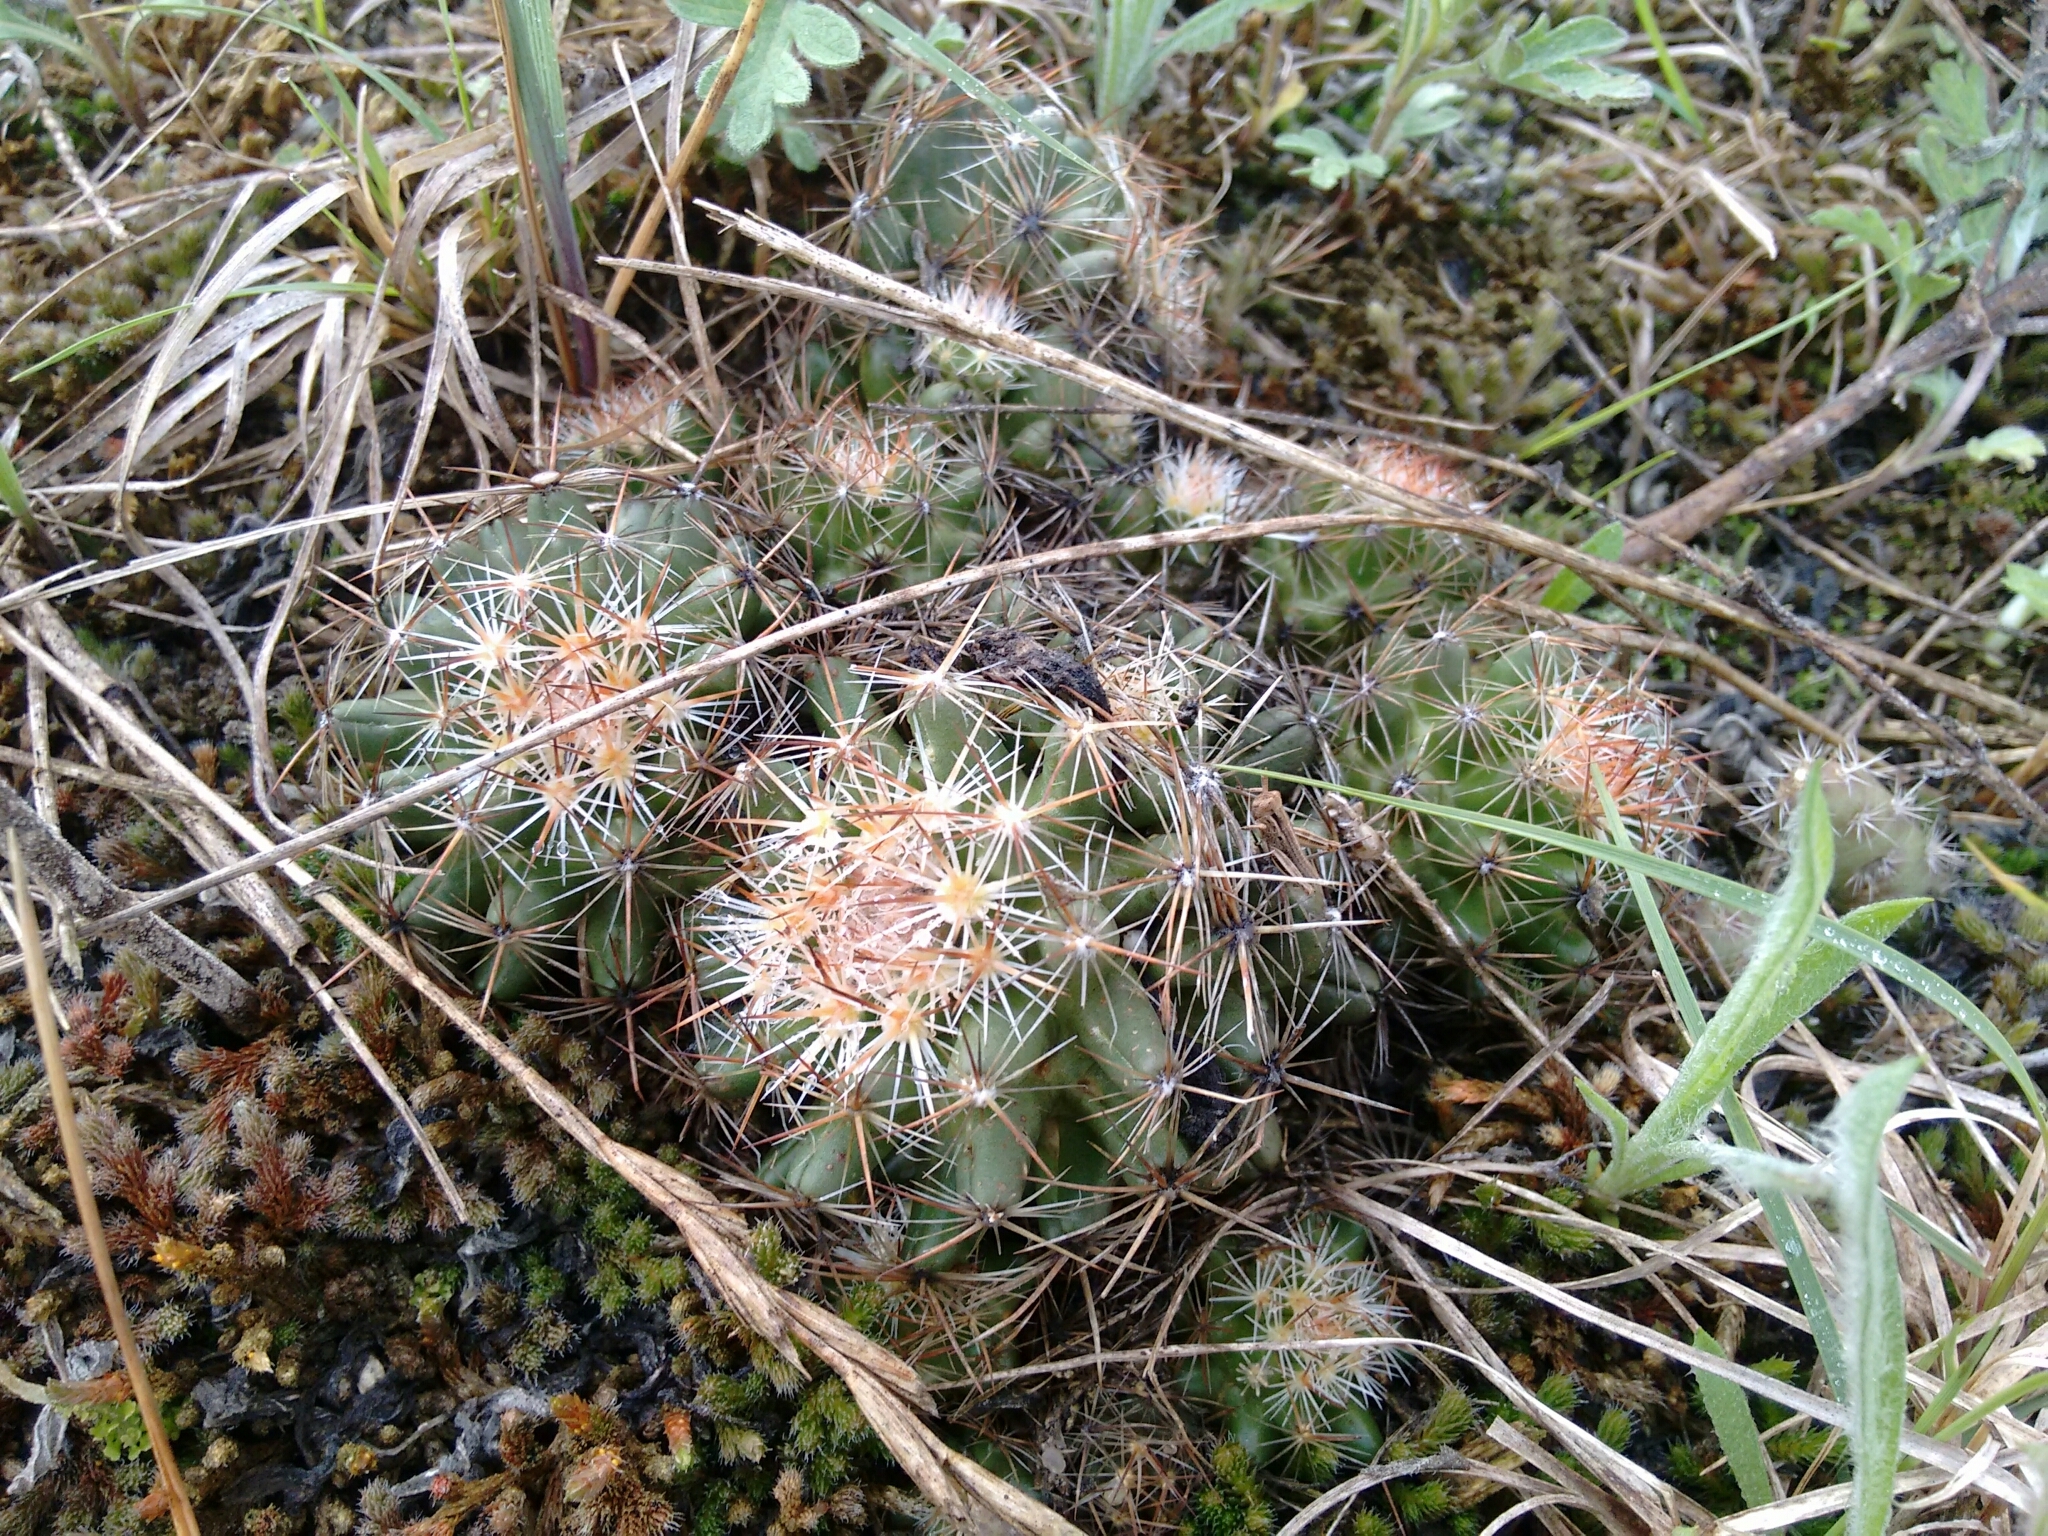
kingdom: Plantae
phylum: Tracheophyta
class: Magnoliopsida
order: Caryophyllales
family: Cactaceae
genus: Pelecyphora
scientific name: Pelecyphora vivipara
